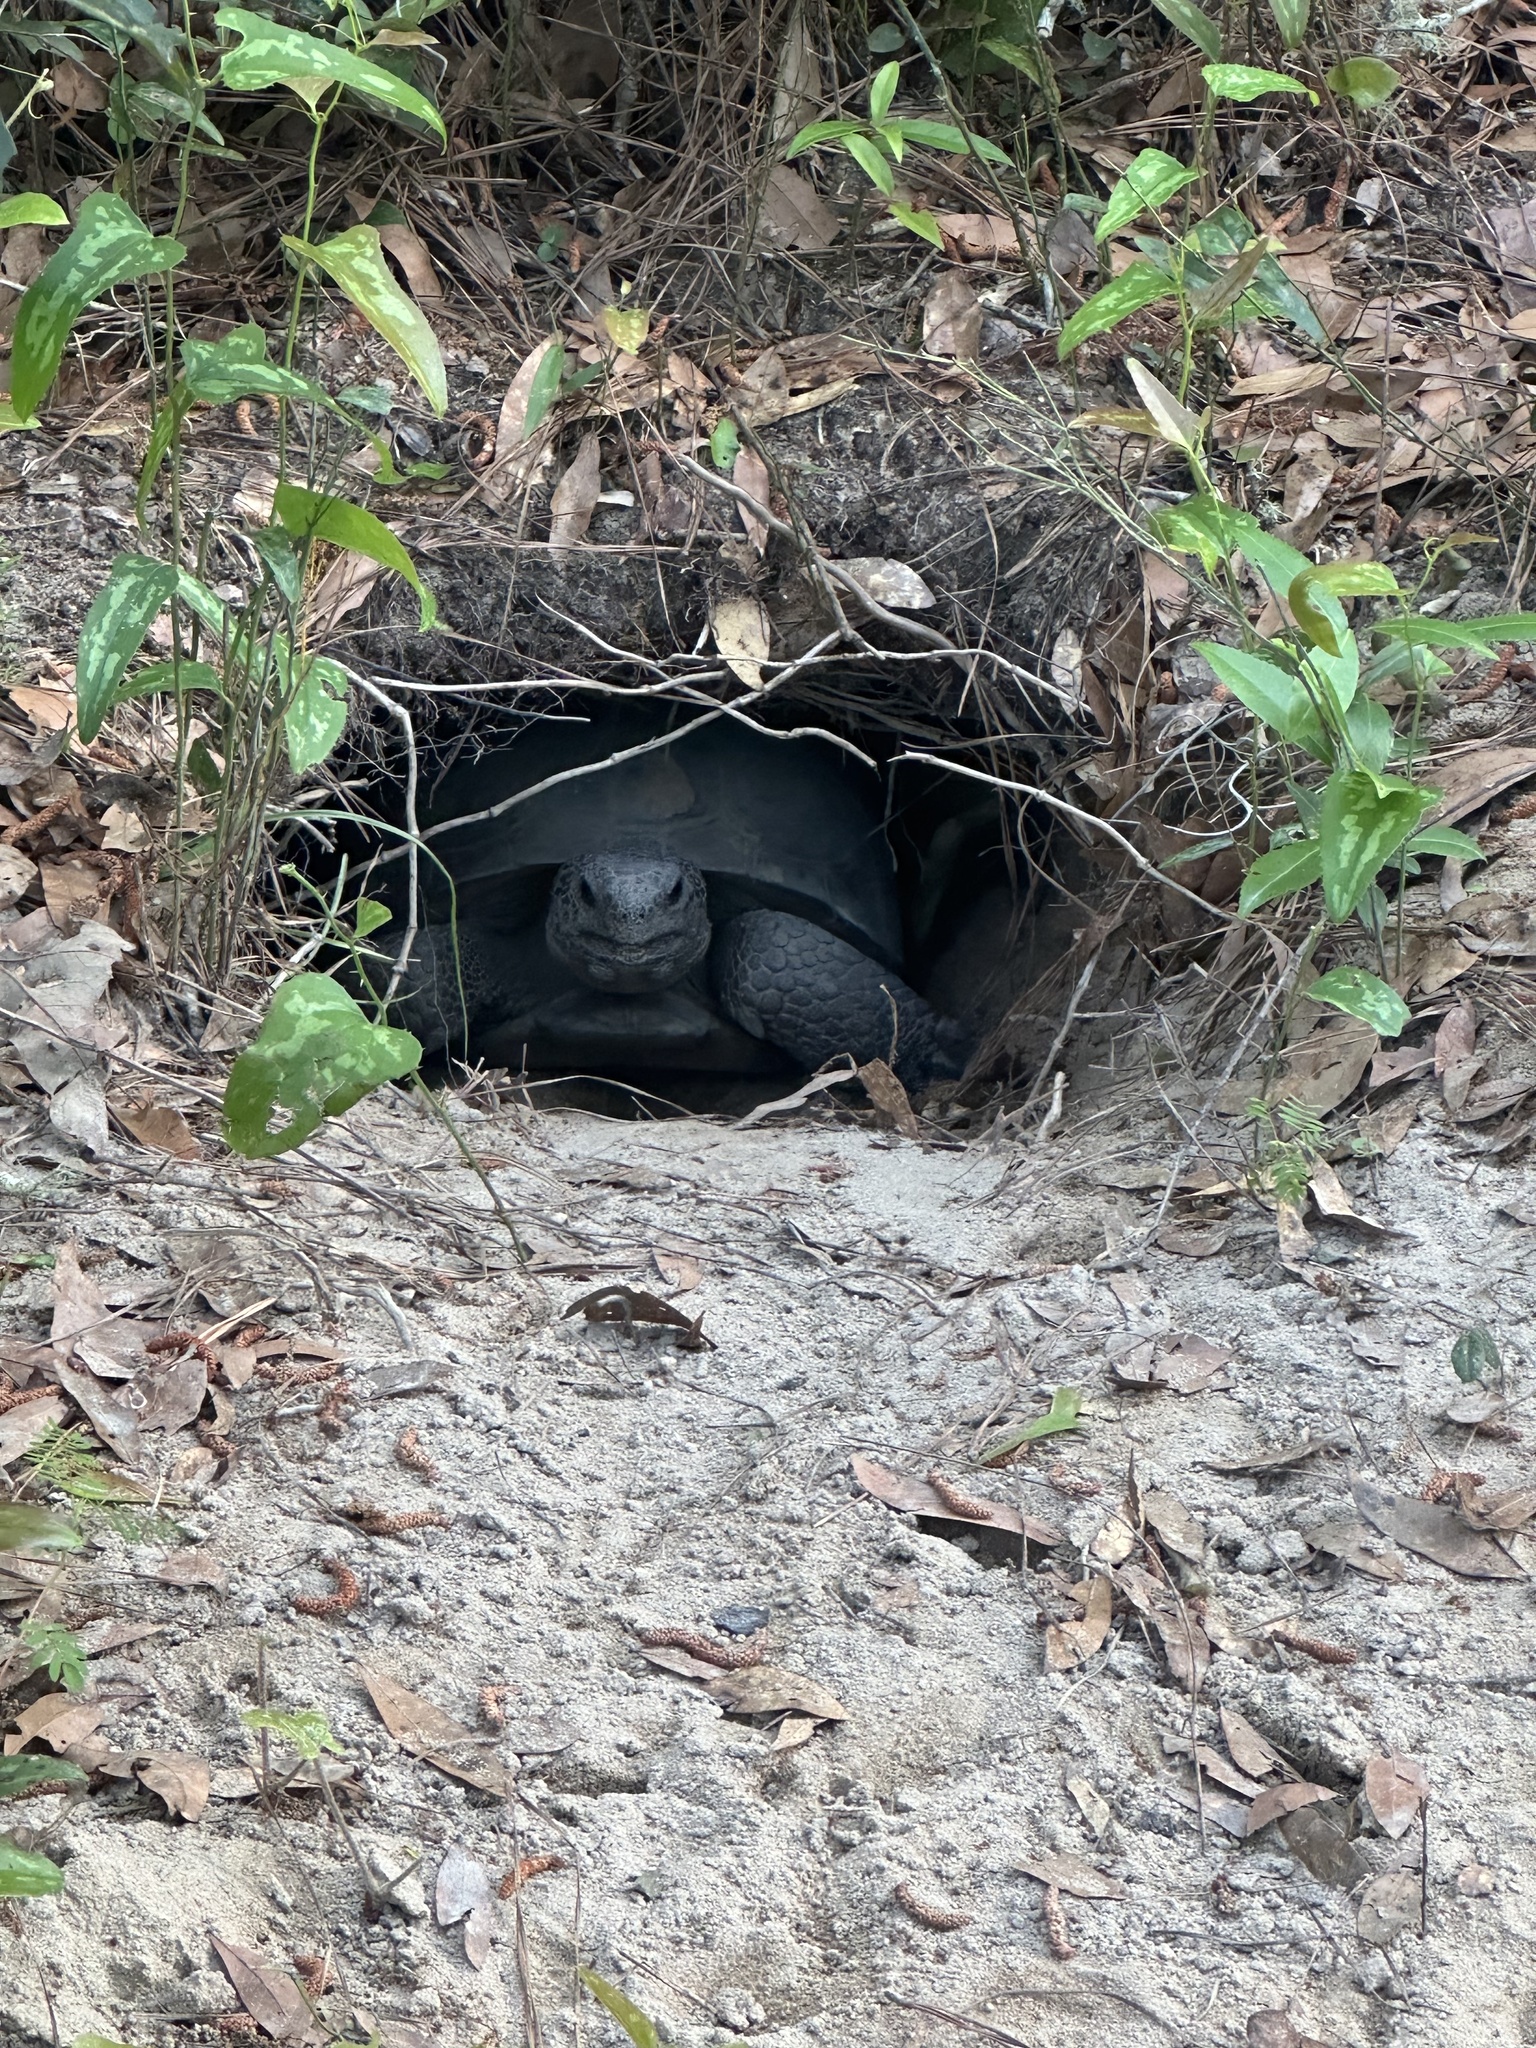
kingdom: Animalia
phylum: Chordata
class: Testudines
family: Testudinidae
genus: Gopherus
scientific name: Gopherus polyphemus
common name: Florida gopher tortoise
